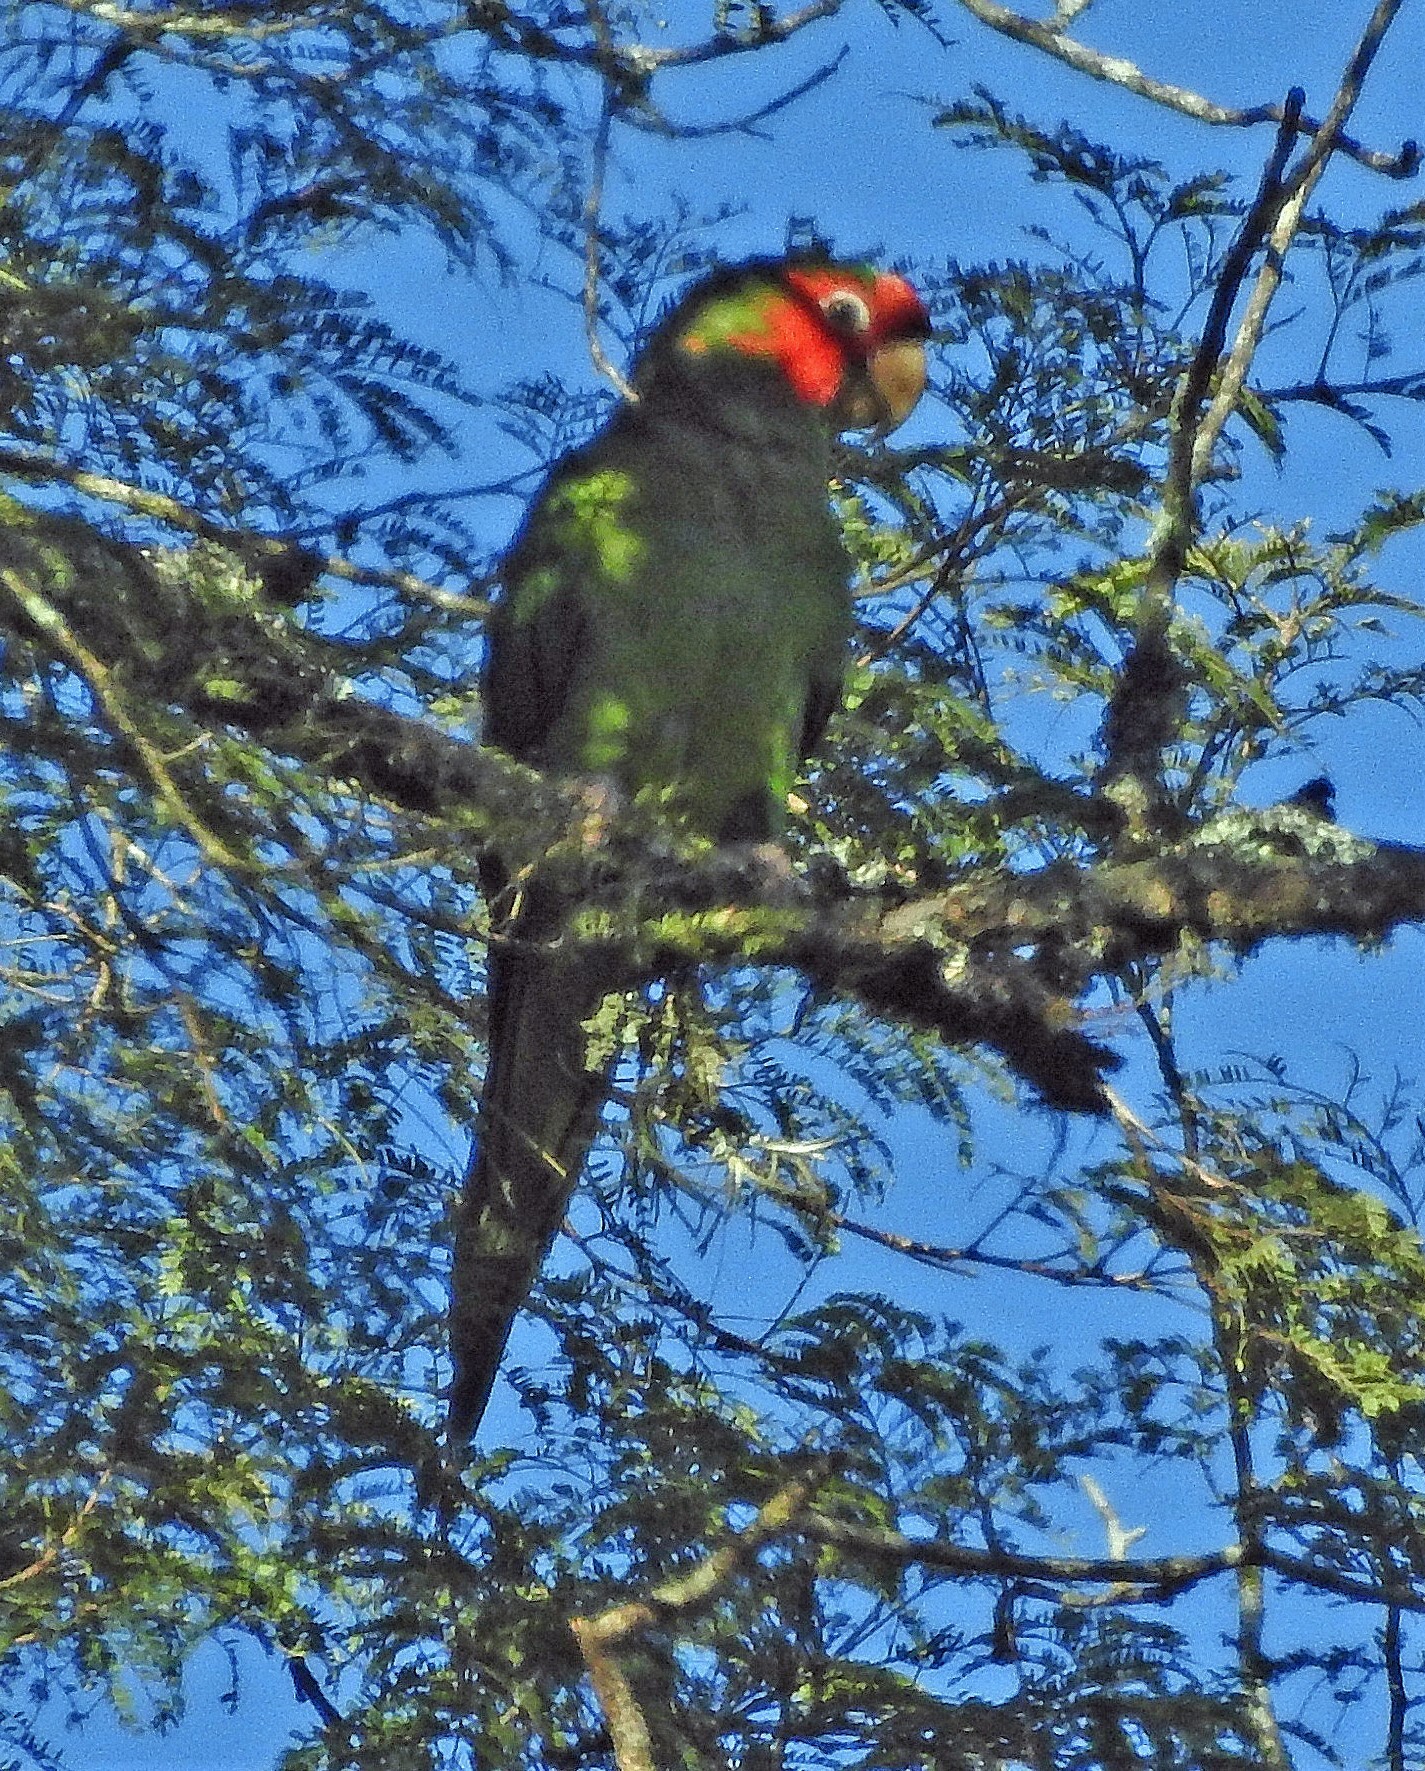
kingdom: Animalia
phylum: Chordata
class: Aves
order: Psittaciformes
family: Psittacidae
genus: Aratinga
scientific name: Aratinga mitrata
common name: Mitred parakeet
